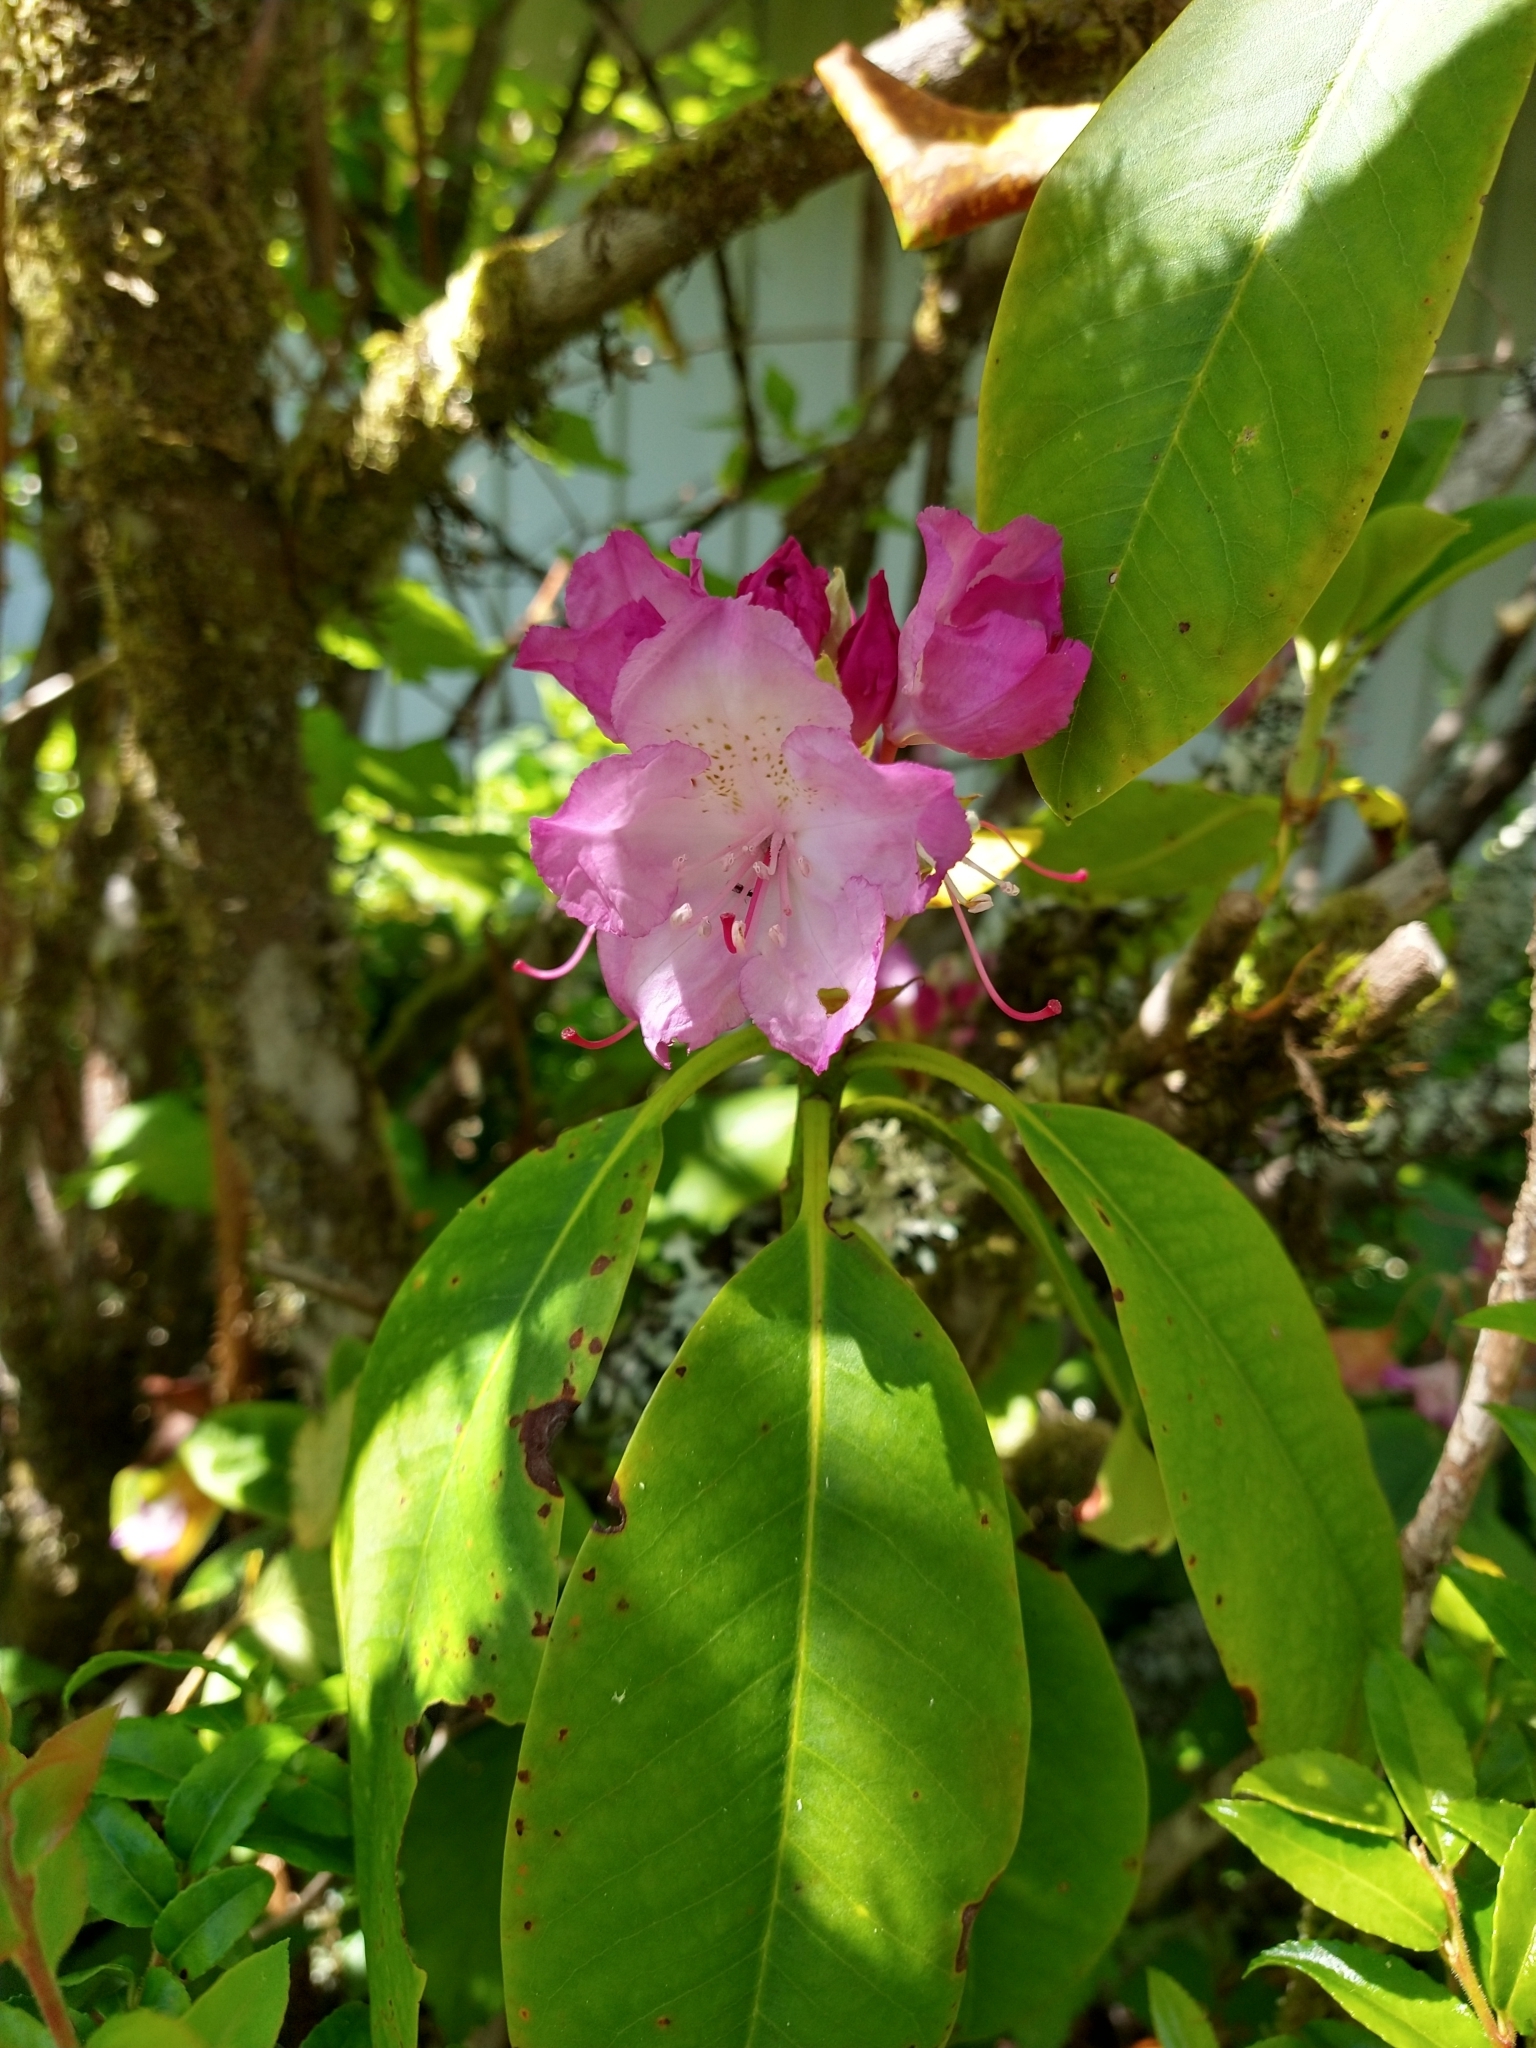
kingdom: Plantae
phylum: Tracheophyta
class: Magnoliopsida
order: Ericales
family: Ericaceae
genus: Rhododendron
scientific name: Rhododendron macrophyllum
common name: California rose bay
